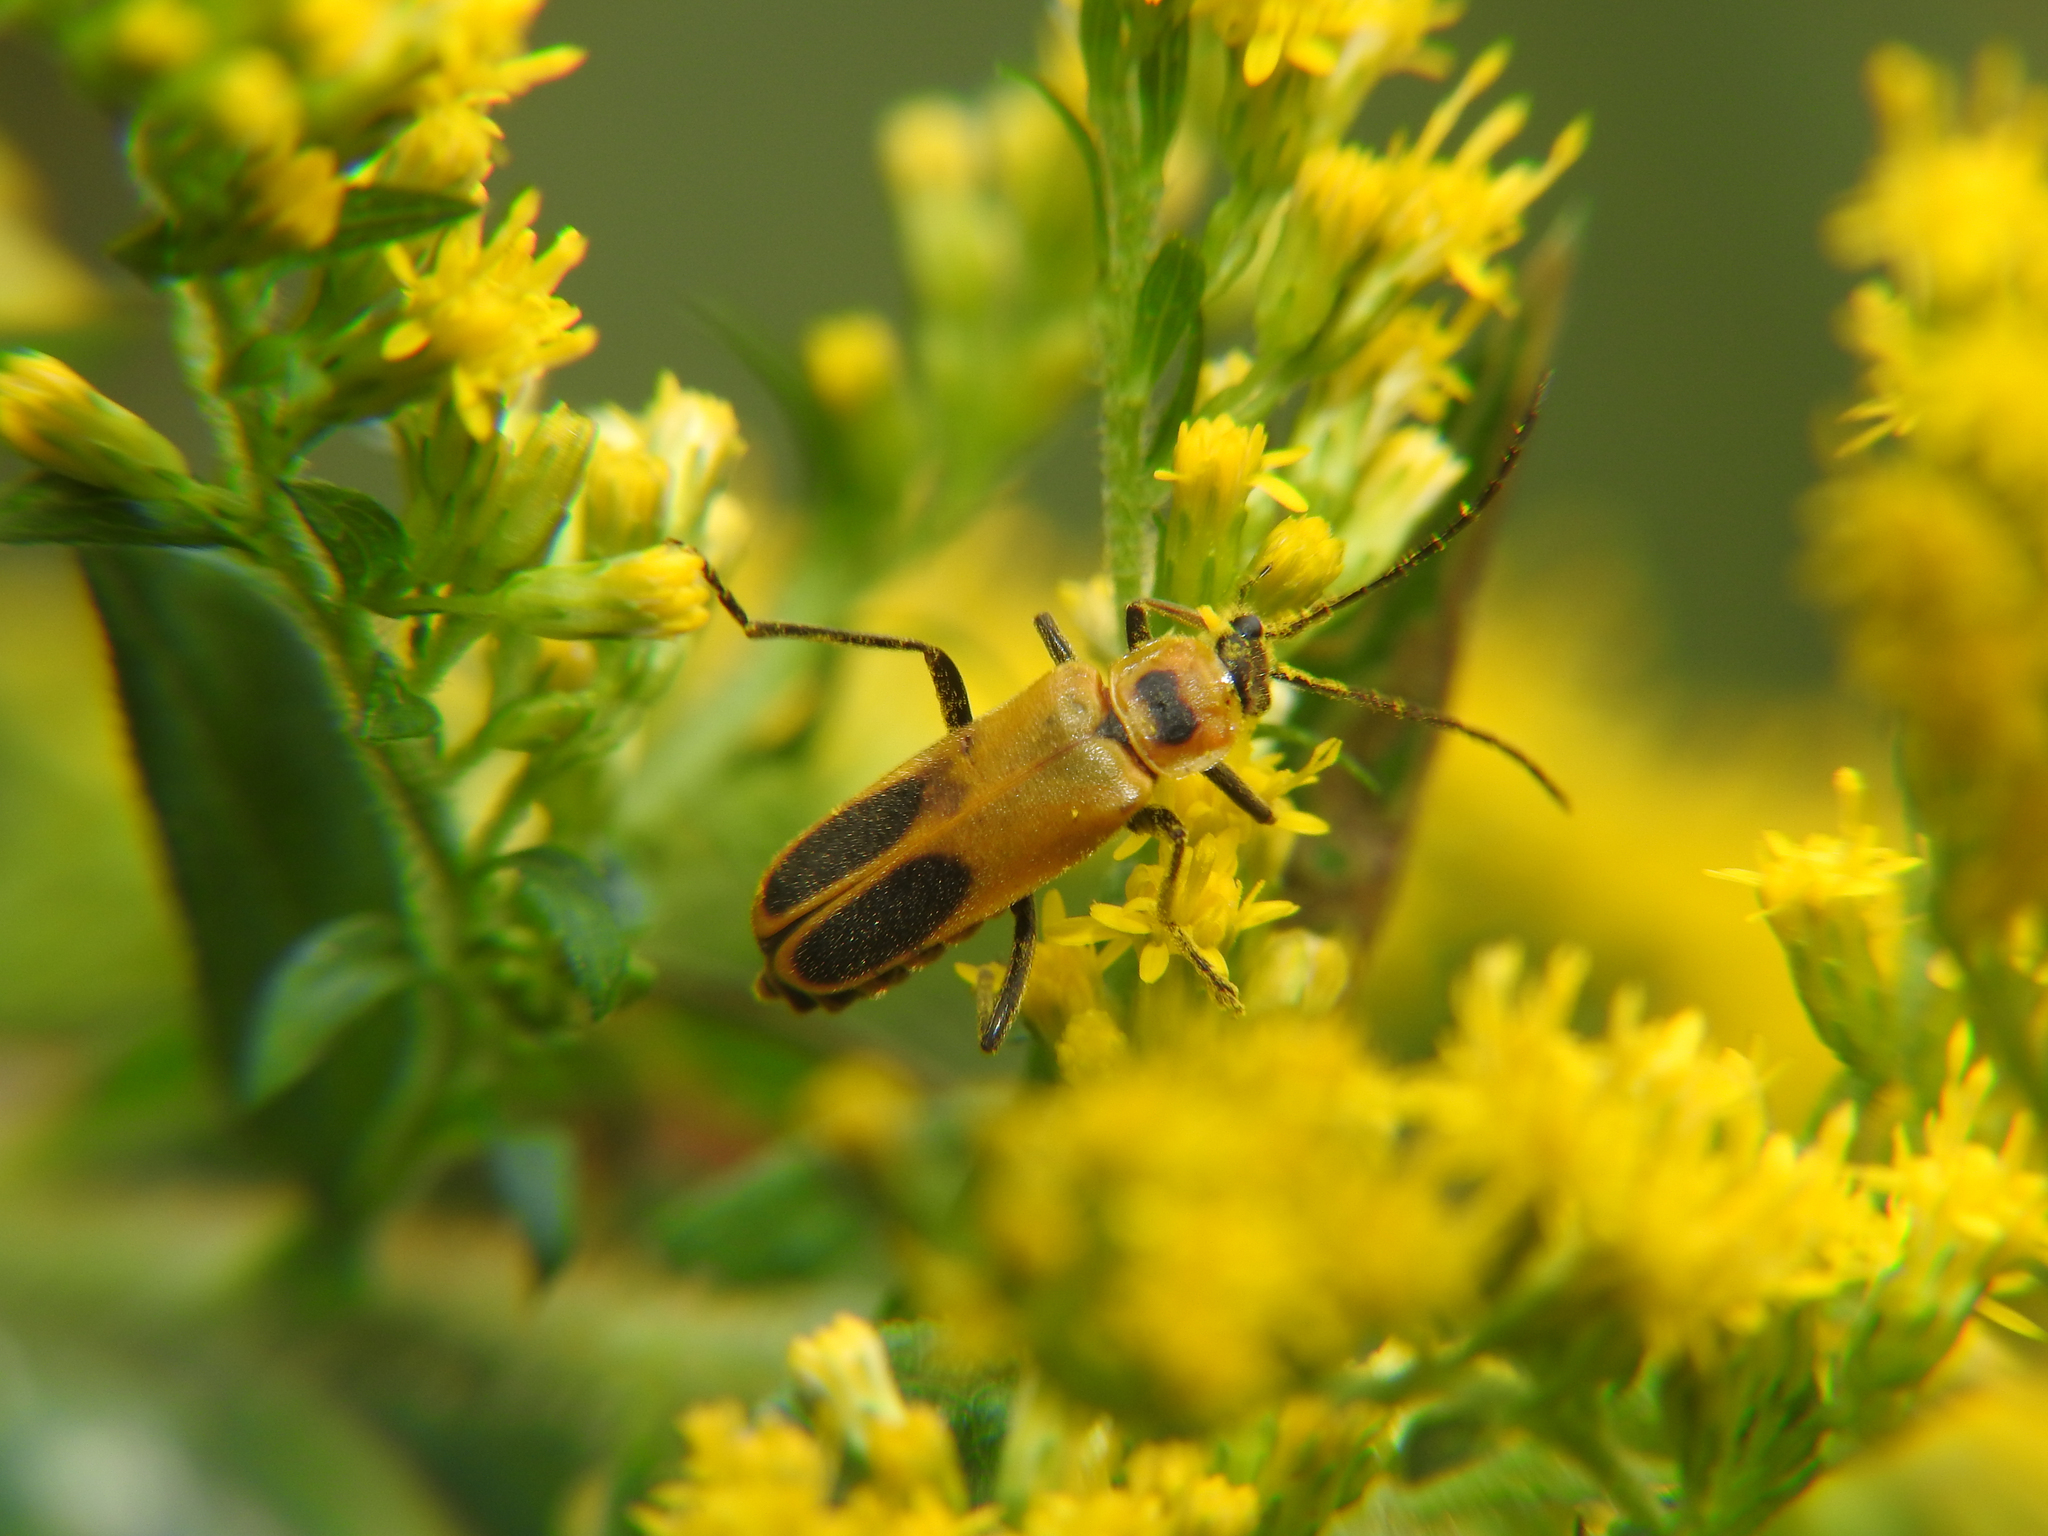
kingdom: Animalia
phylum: Arthropoda
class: Insecta
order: Coleoptera
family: Cantharidae
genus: Chauliognathus
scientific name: Chauliognathus pensylvanicus
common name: Goldenrod soldier beetle
